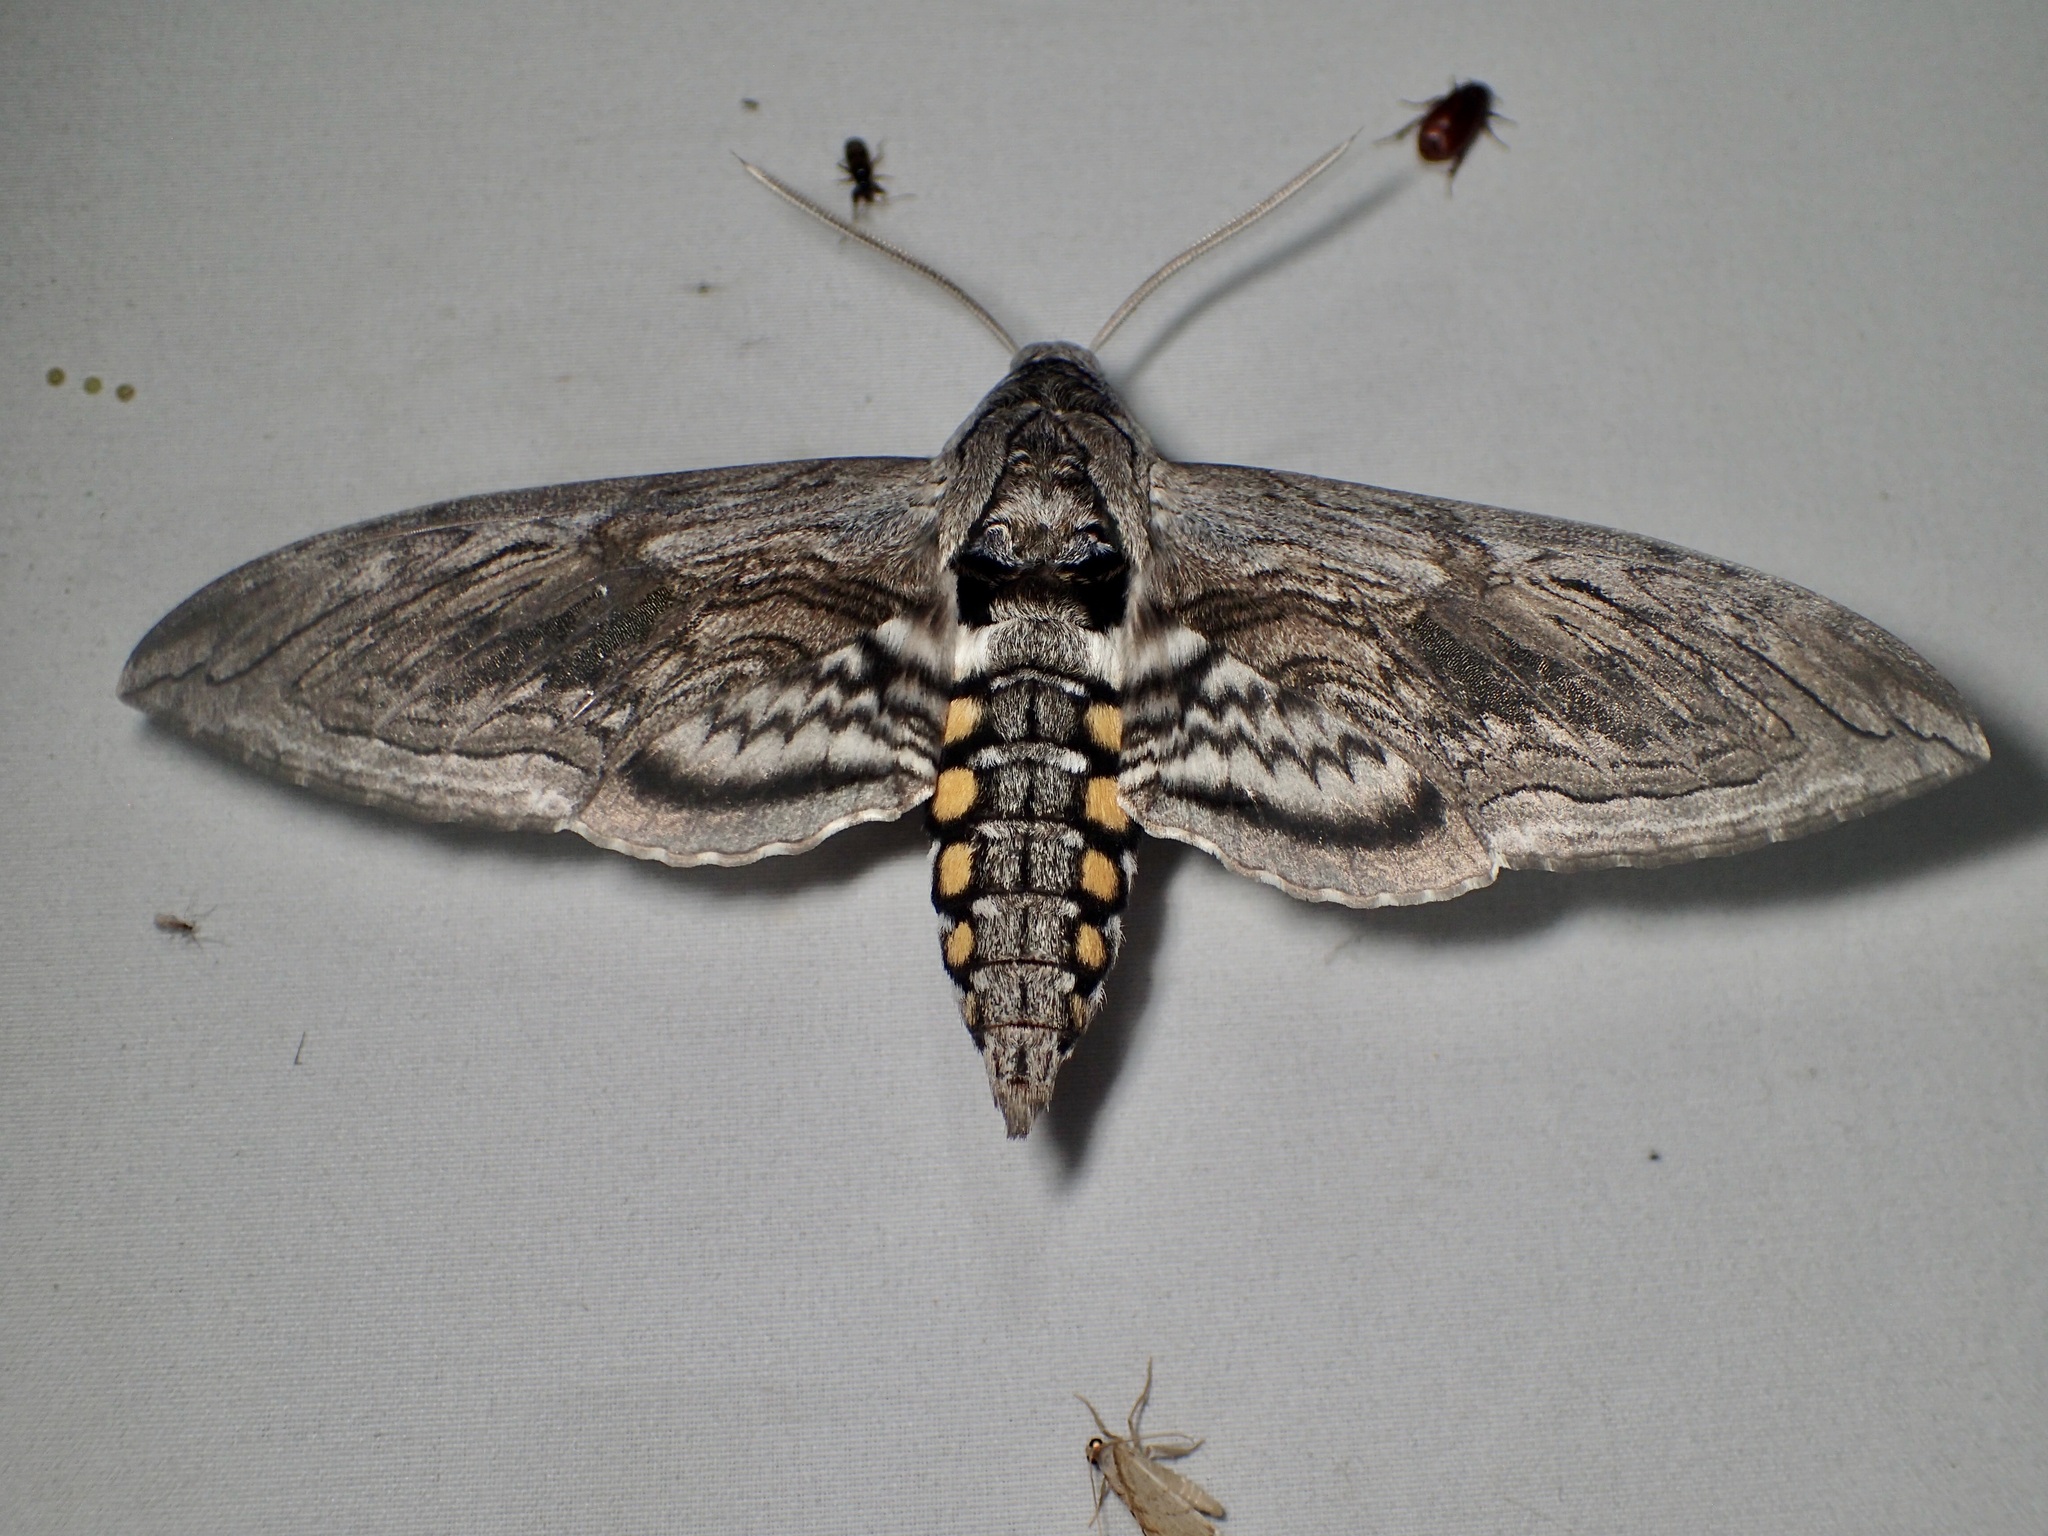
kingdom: Animalia
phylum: Arthropoda
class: Insecta
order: Lepidoptera
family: Sphingidae
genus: Manduca
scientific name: Manduca quinquemaculatus
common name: Five-spotted hawk-moth
